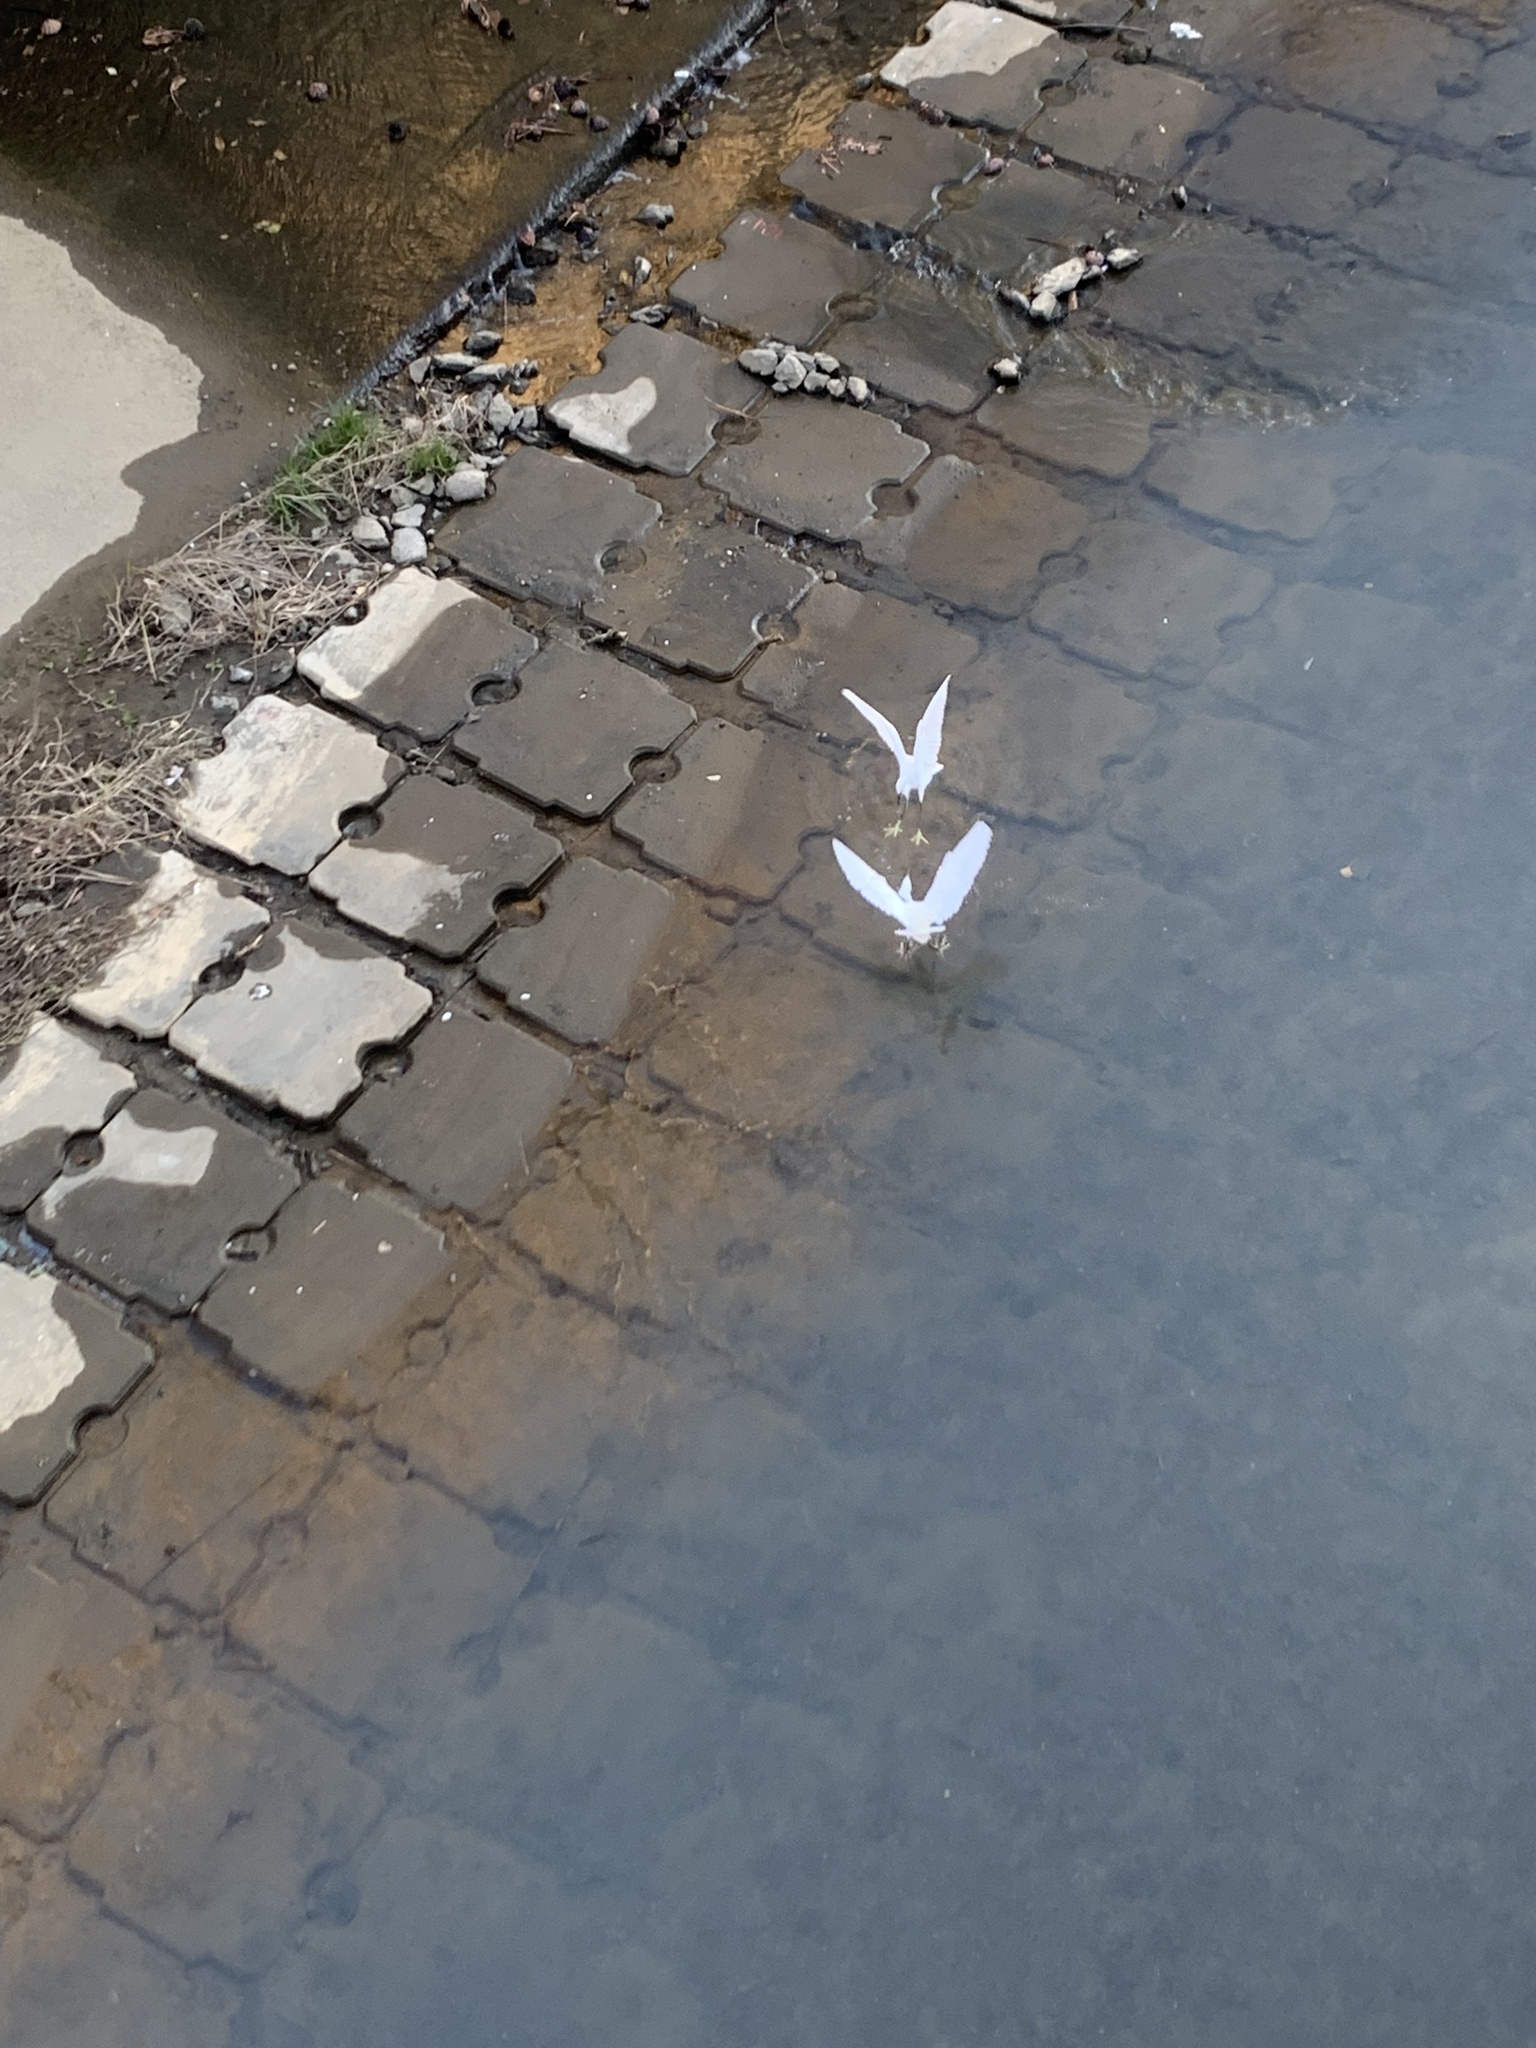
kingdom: Animalia
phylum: Chordata
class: Aves
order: Pelecaniformes
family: Ardeidae
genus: Egretta
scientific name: Egretta garzetta
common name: Little egret
